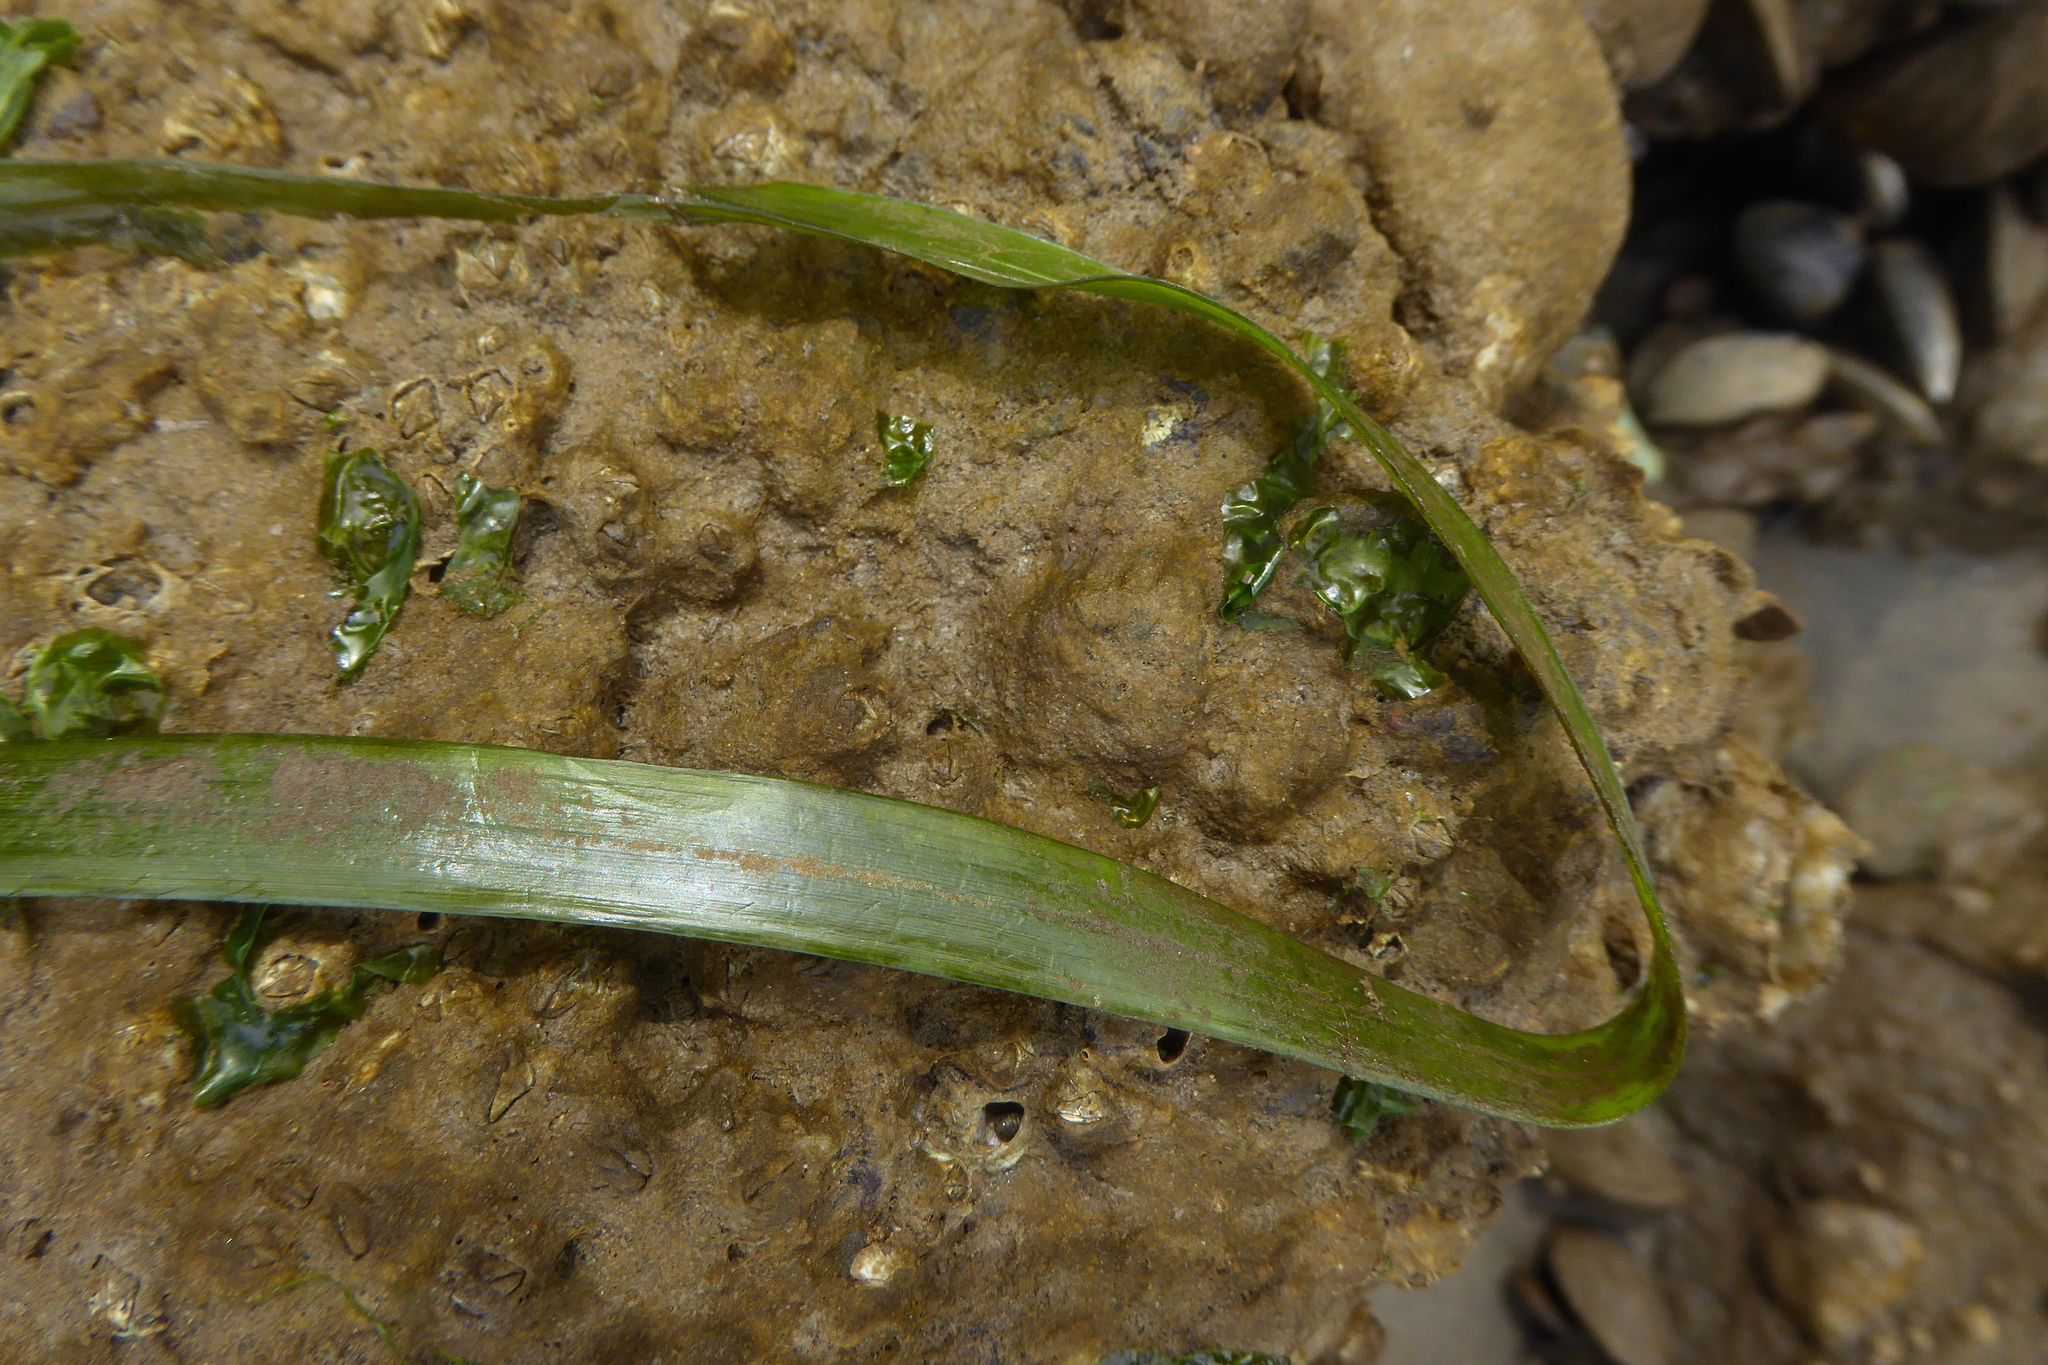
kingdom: Plantae
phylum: Tracheophyta
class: Liliopsida
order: Alismatales
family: Zosteraceae
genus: Zostera
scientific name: Zostera marina
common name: Eelgrass
